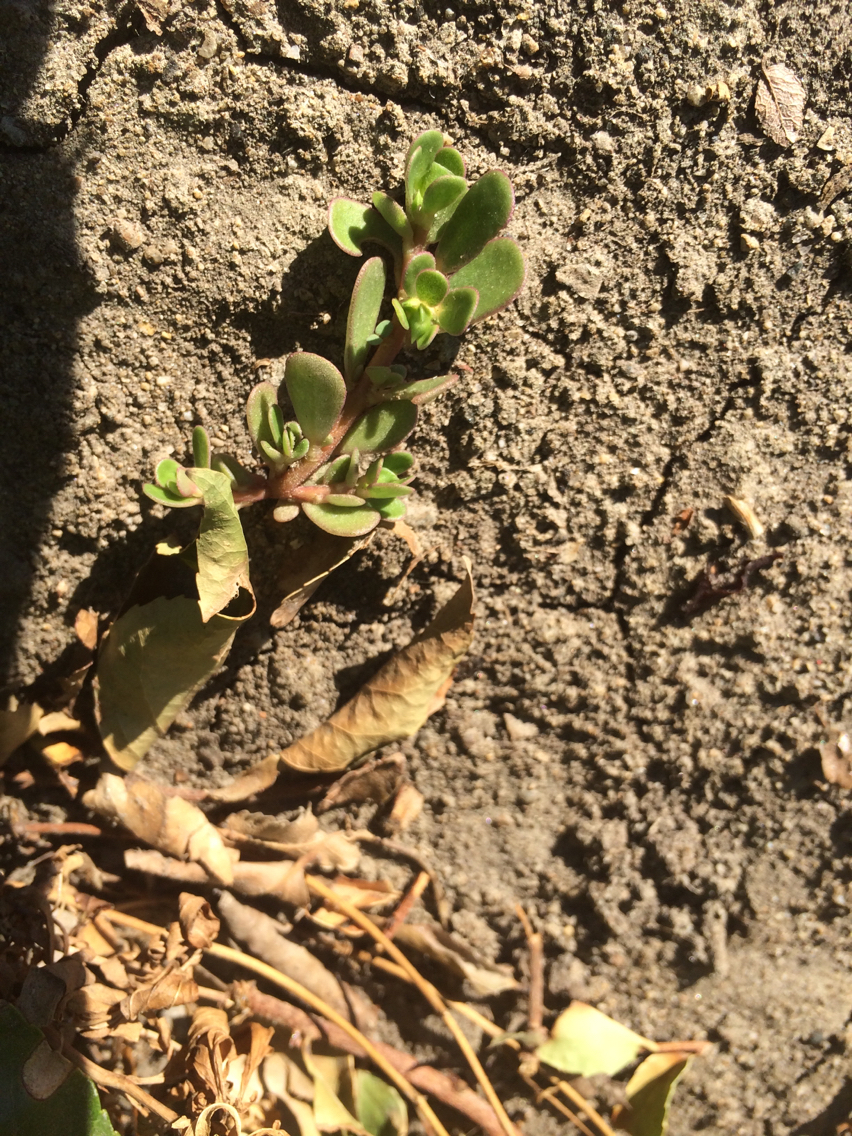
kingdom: Plantae
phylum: Tracheophyta
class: Magnoliopsida
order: Caryophyllales
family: Portulacaceae
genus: Portulaca
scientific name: Portulaca oleracea
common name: Common purslane
